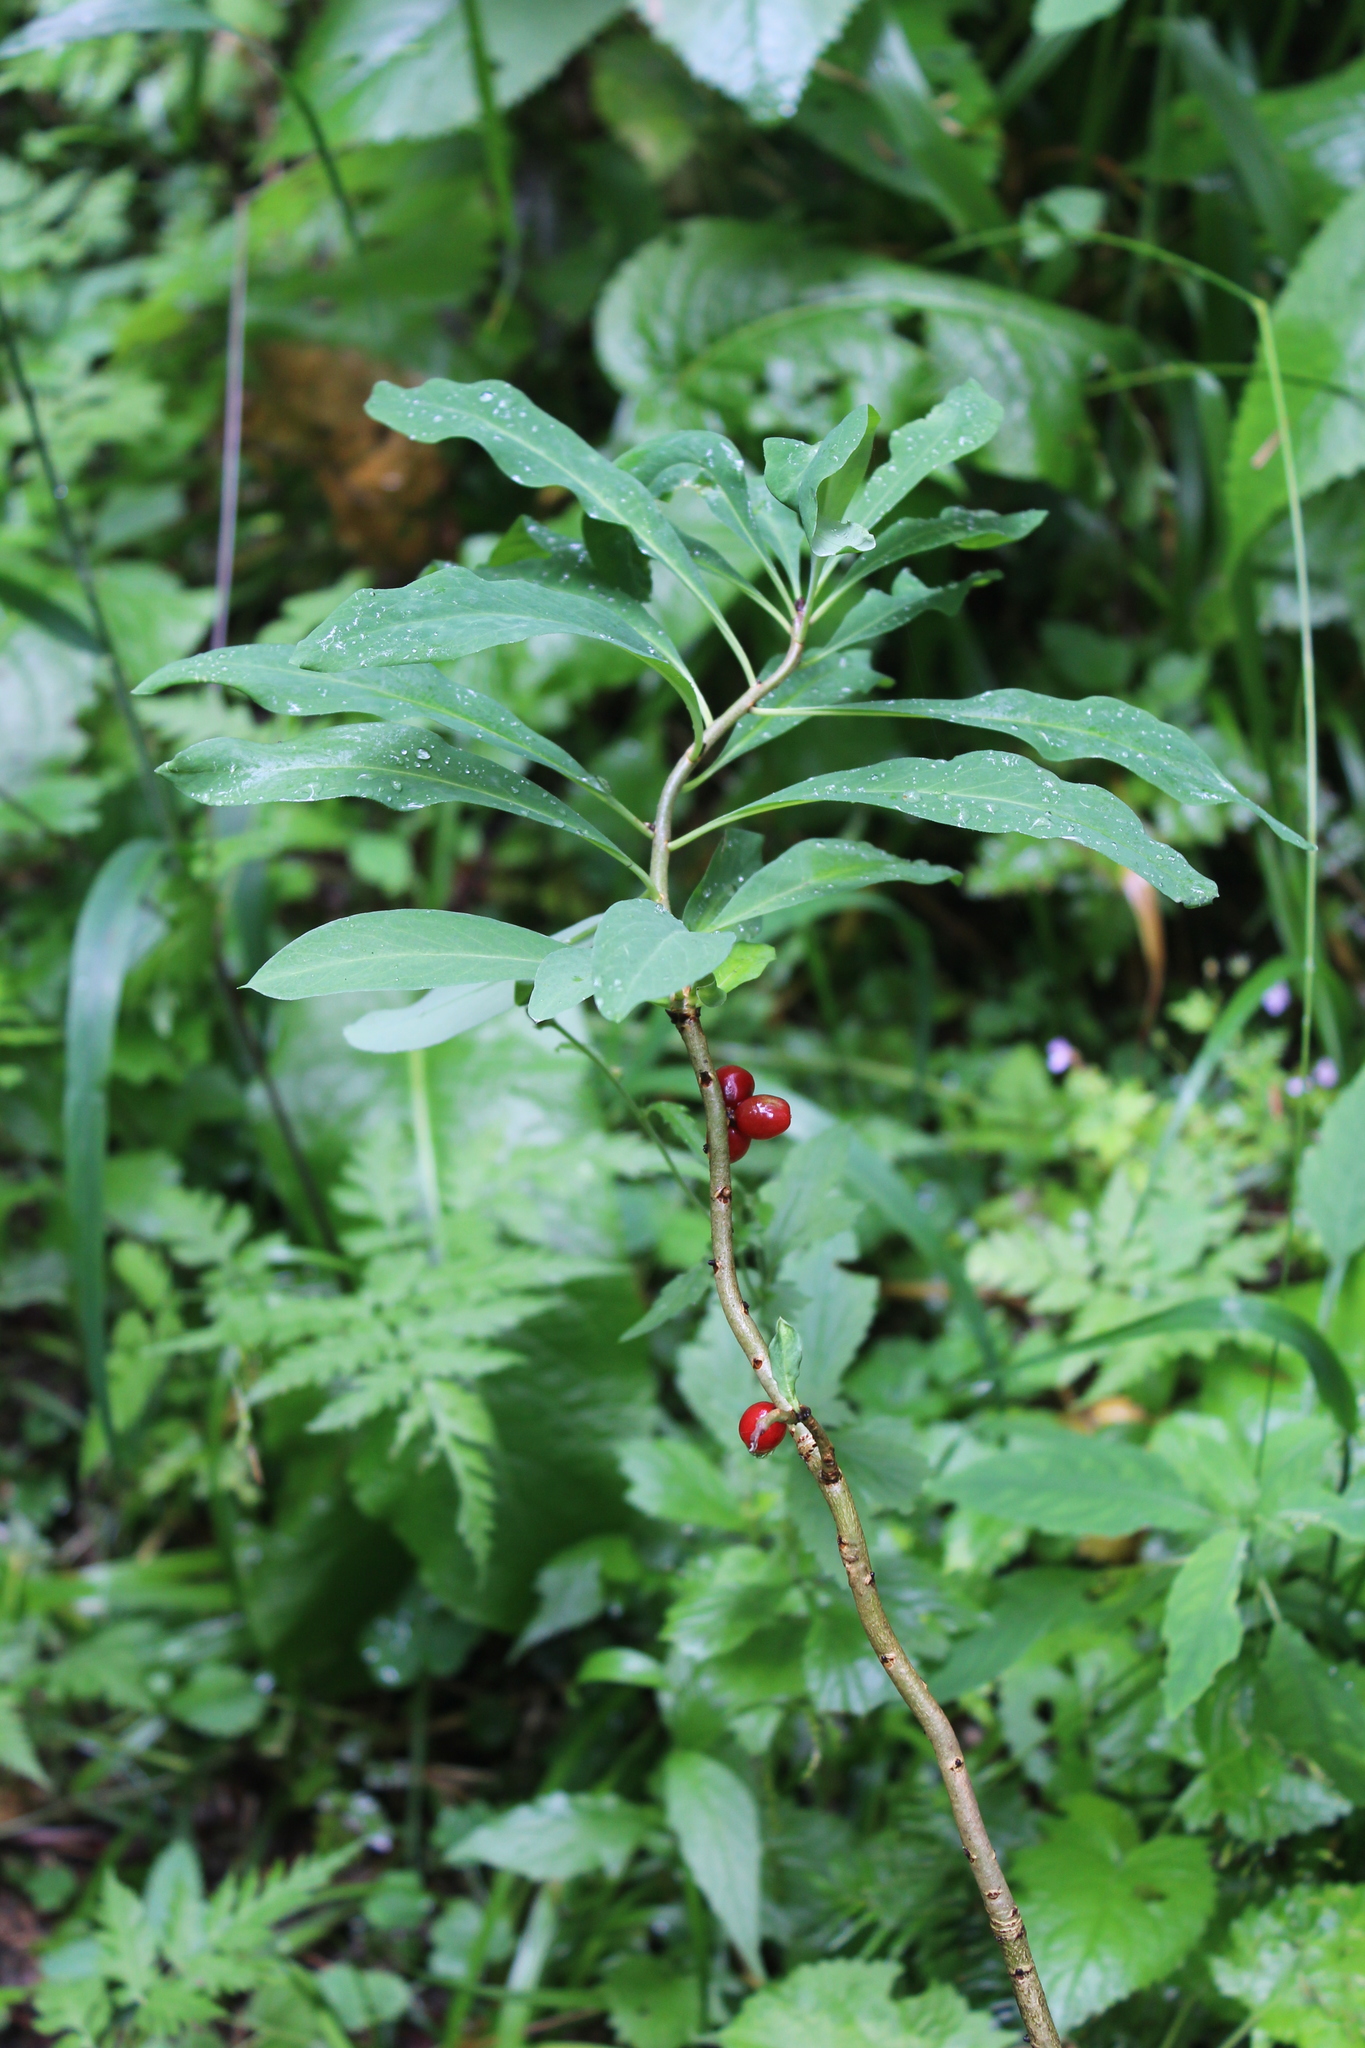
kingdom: Plantae
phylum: Tracheophyta
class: Magnoliopsida
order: Malvales
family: Thymelaeaceae
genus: Daphne
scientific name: Daphne mezereum
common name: Mezereon
